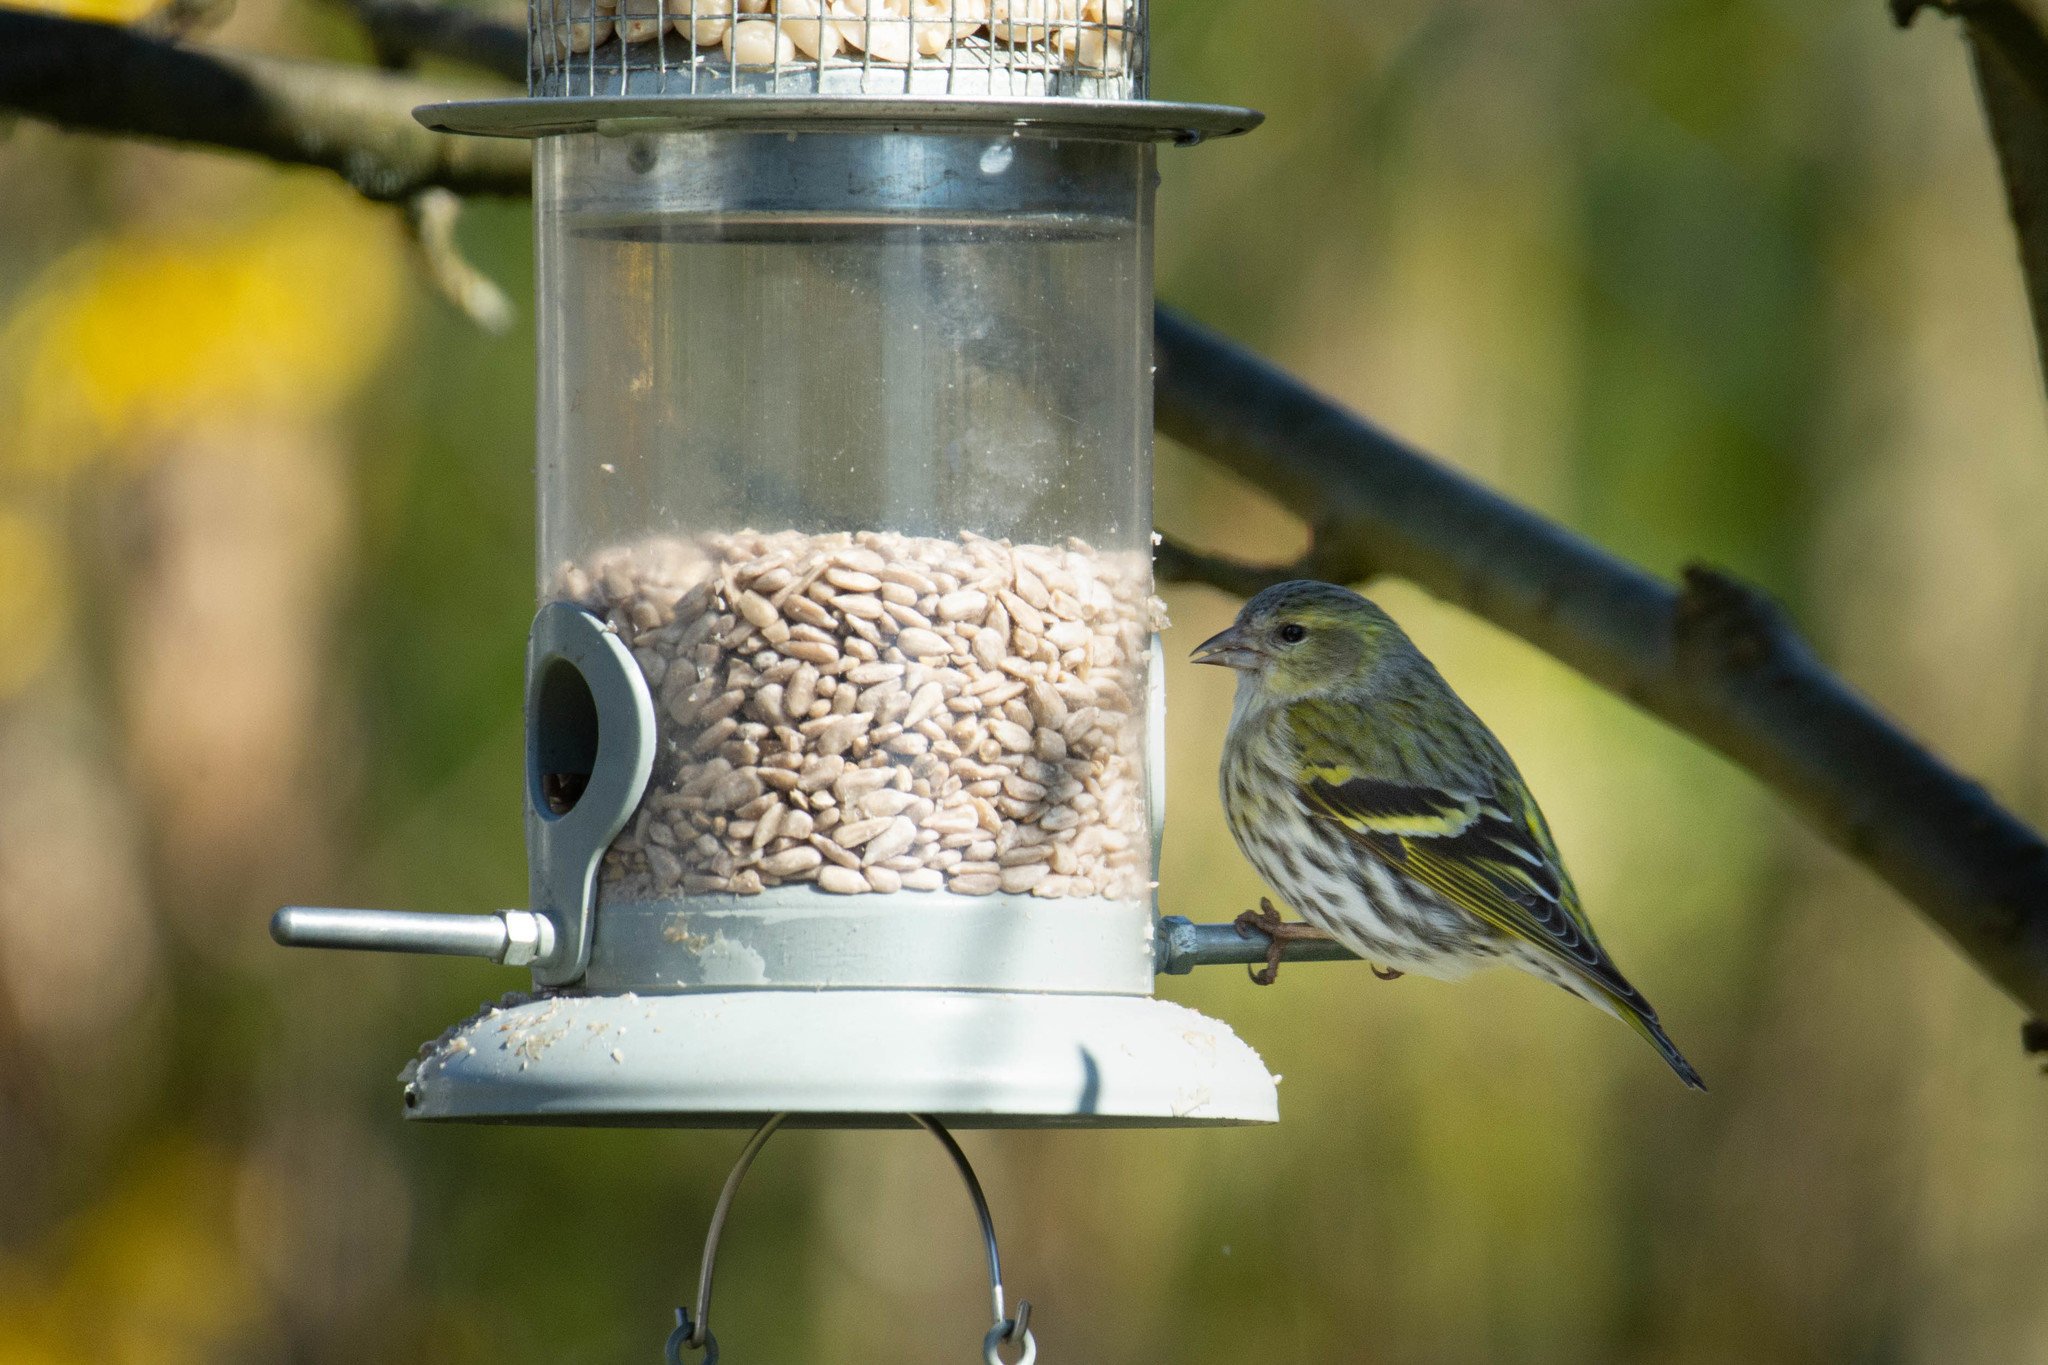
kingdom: Animalia
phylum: Chordata
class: Aves
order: Passeriformes
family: Fringillidae
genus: Spinus
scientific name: Spinus spinus
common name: Eurasian siskin
